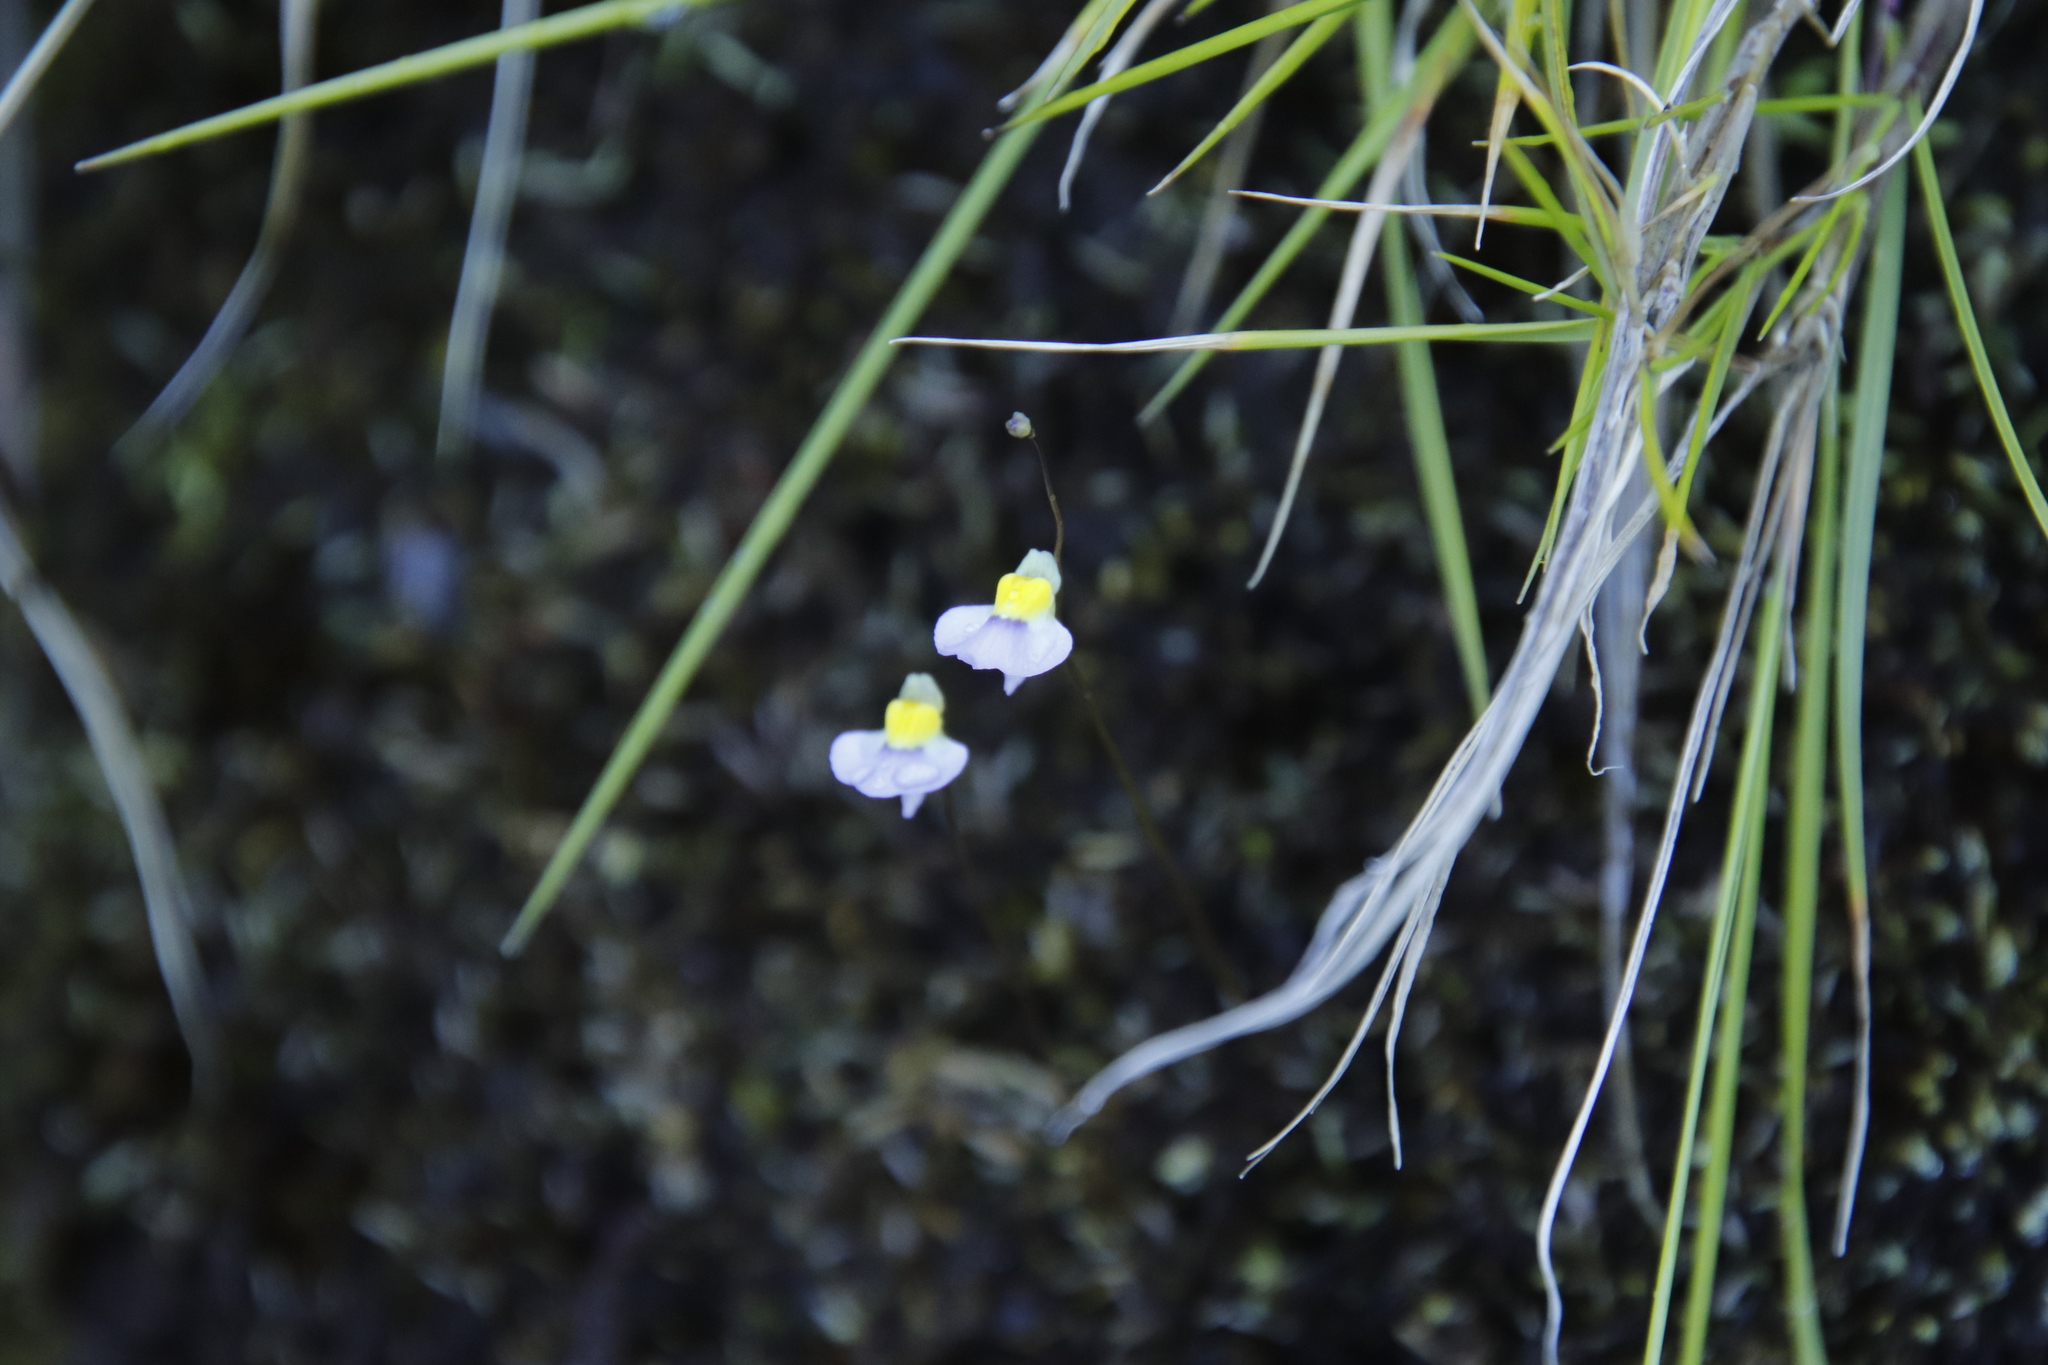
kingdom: Plantae
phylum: Tracheophyta
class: Magnoliopsida
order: Lamiales
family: Lentibulariaceae
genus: Utricularia
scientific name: Utricularia bisquamata
